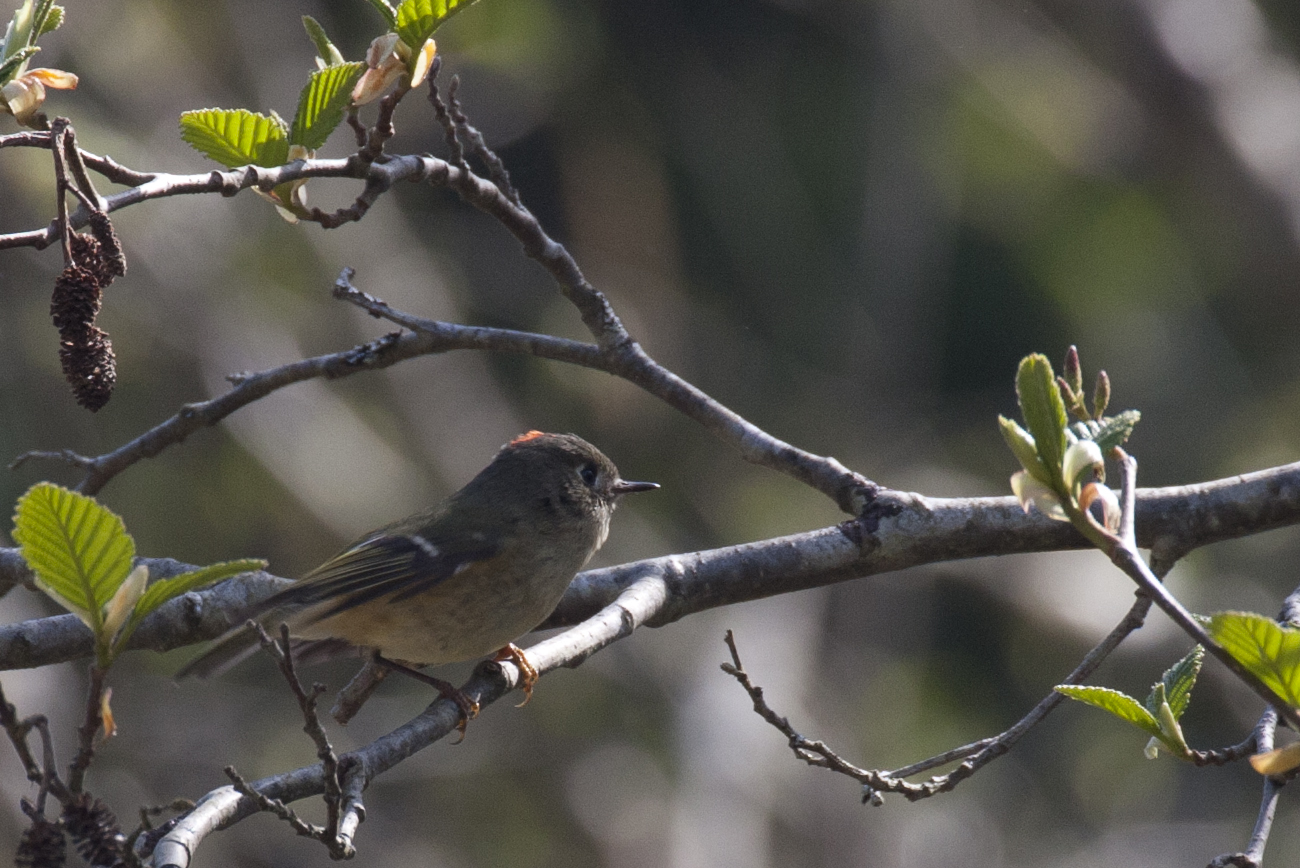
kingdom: Animalia
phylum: Chordata
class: Aves
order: Passeriformes
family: Regulidae
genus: Regulus
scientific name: Regulus calendula
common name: Ruby-crowned kinglet
